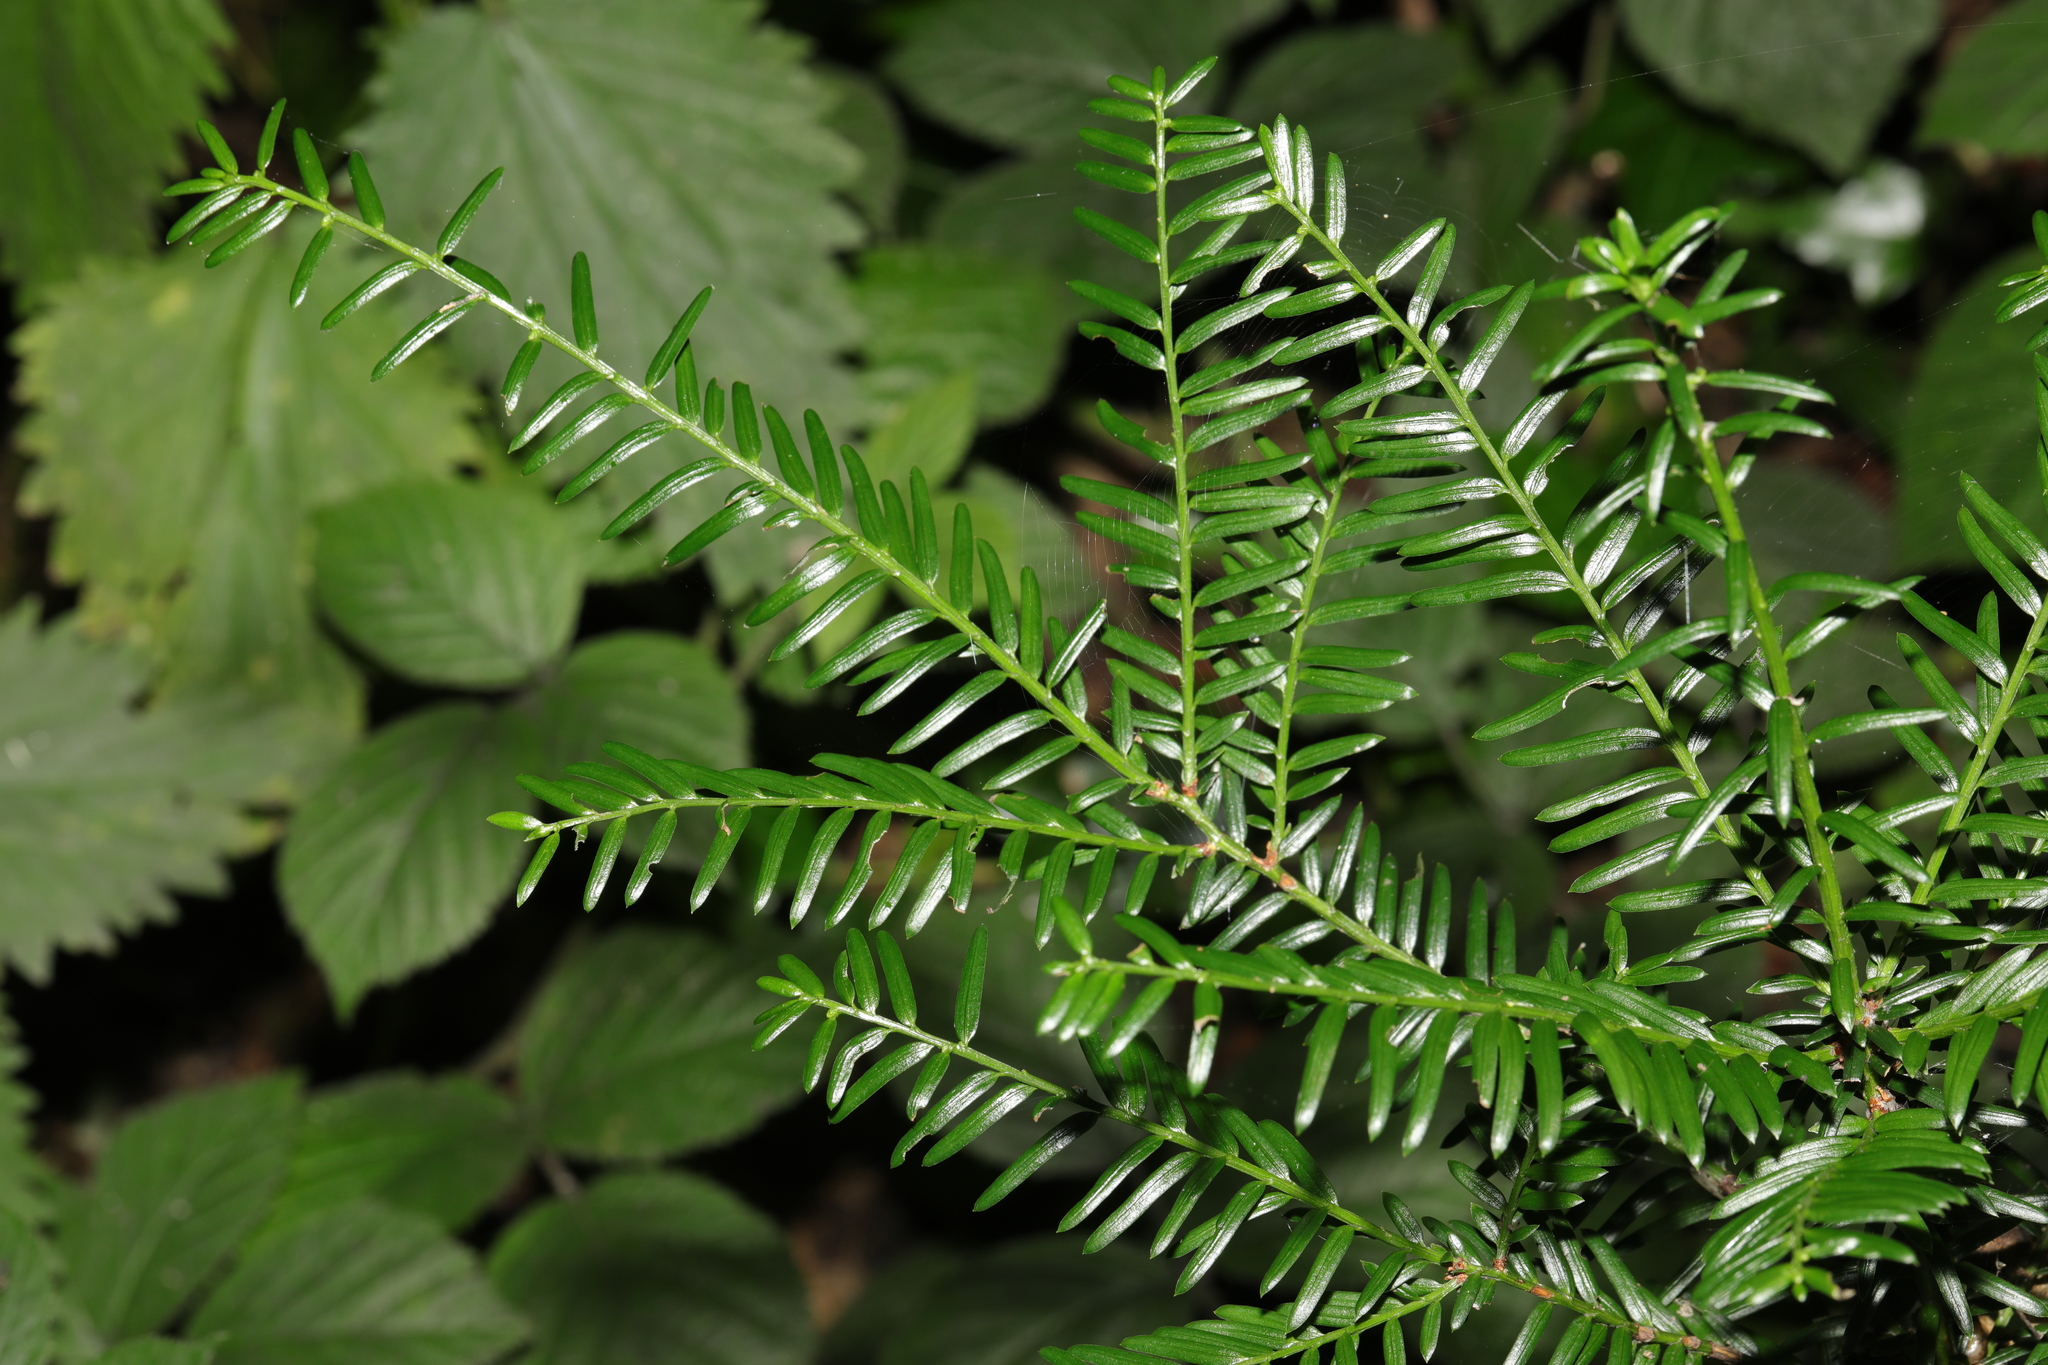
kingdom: Plantae
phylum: Tracheophyta
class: Pinopsida
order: Pinales
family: Taxaceae
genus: Taxus
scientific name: Taxus baccata
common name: Yew
